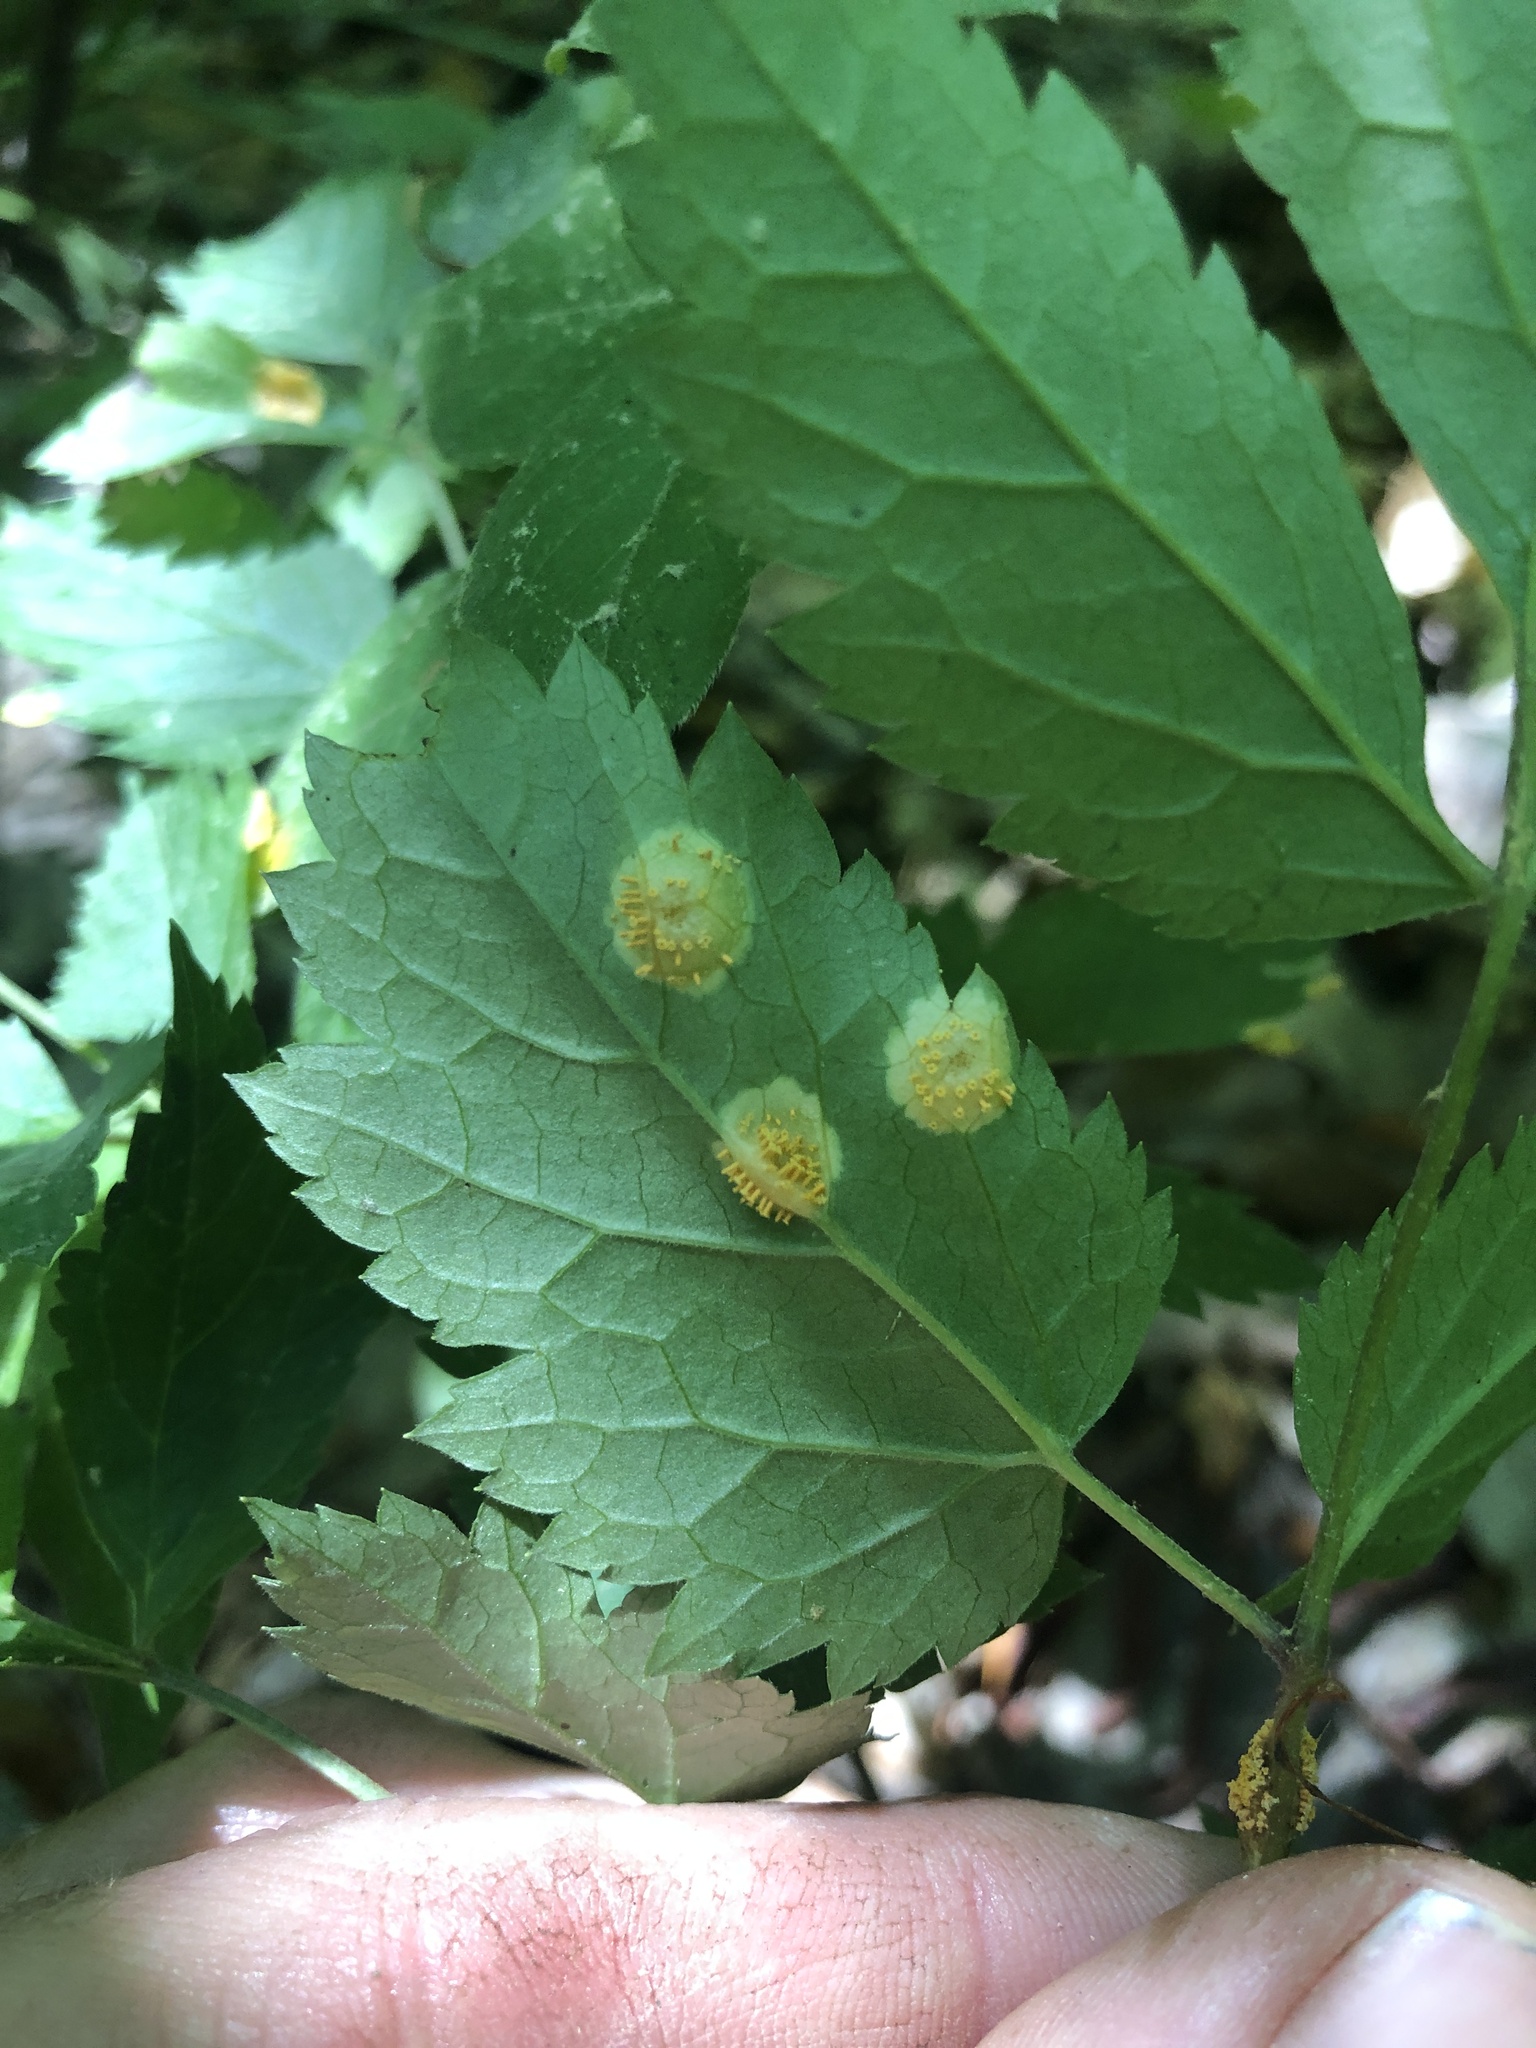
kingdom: Fungi
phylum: Basidiomycota
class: Pucciniomycetes
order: Pucciniales
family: Pucciniaceae
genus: Puccinia
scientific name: Puccinia recondita
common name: Brown rust of wheat
